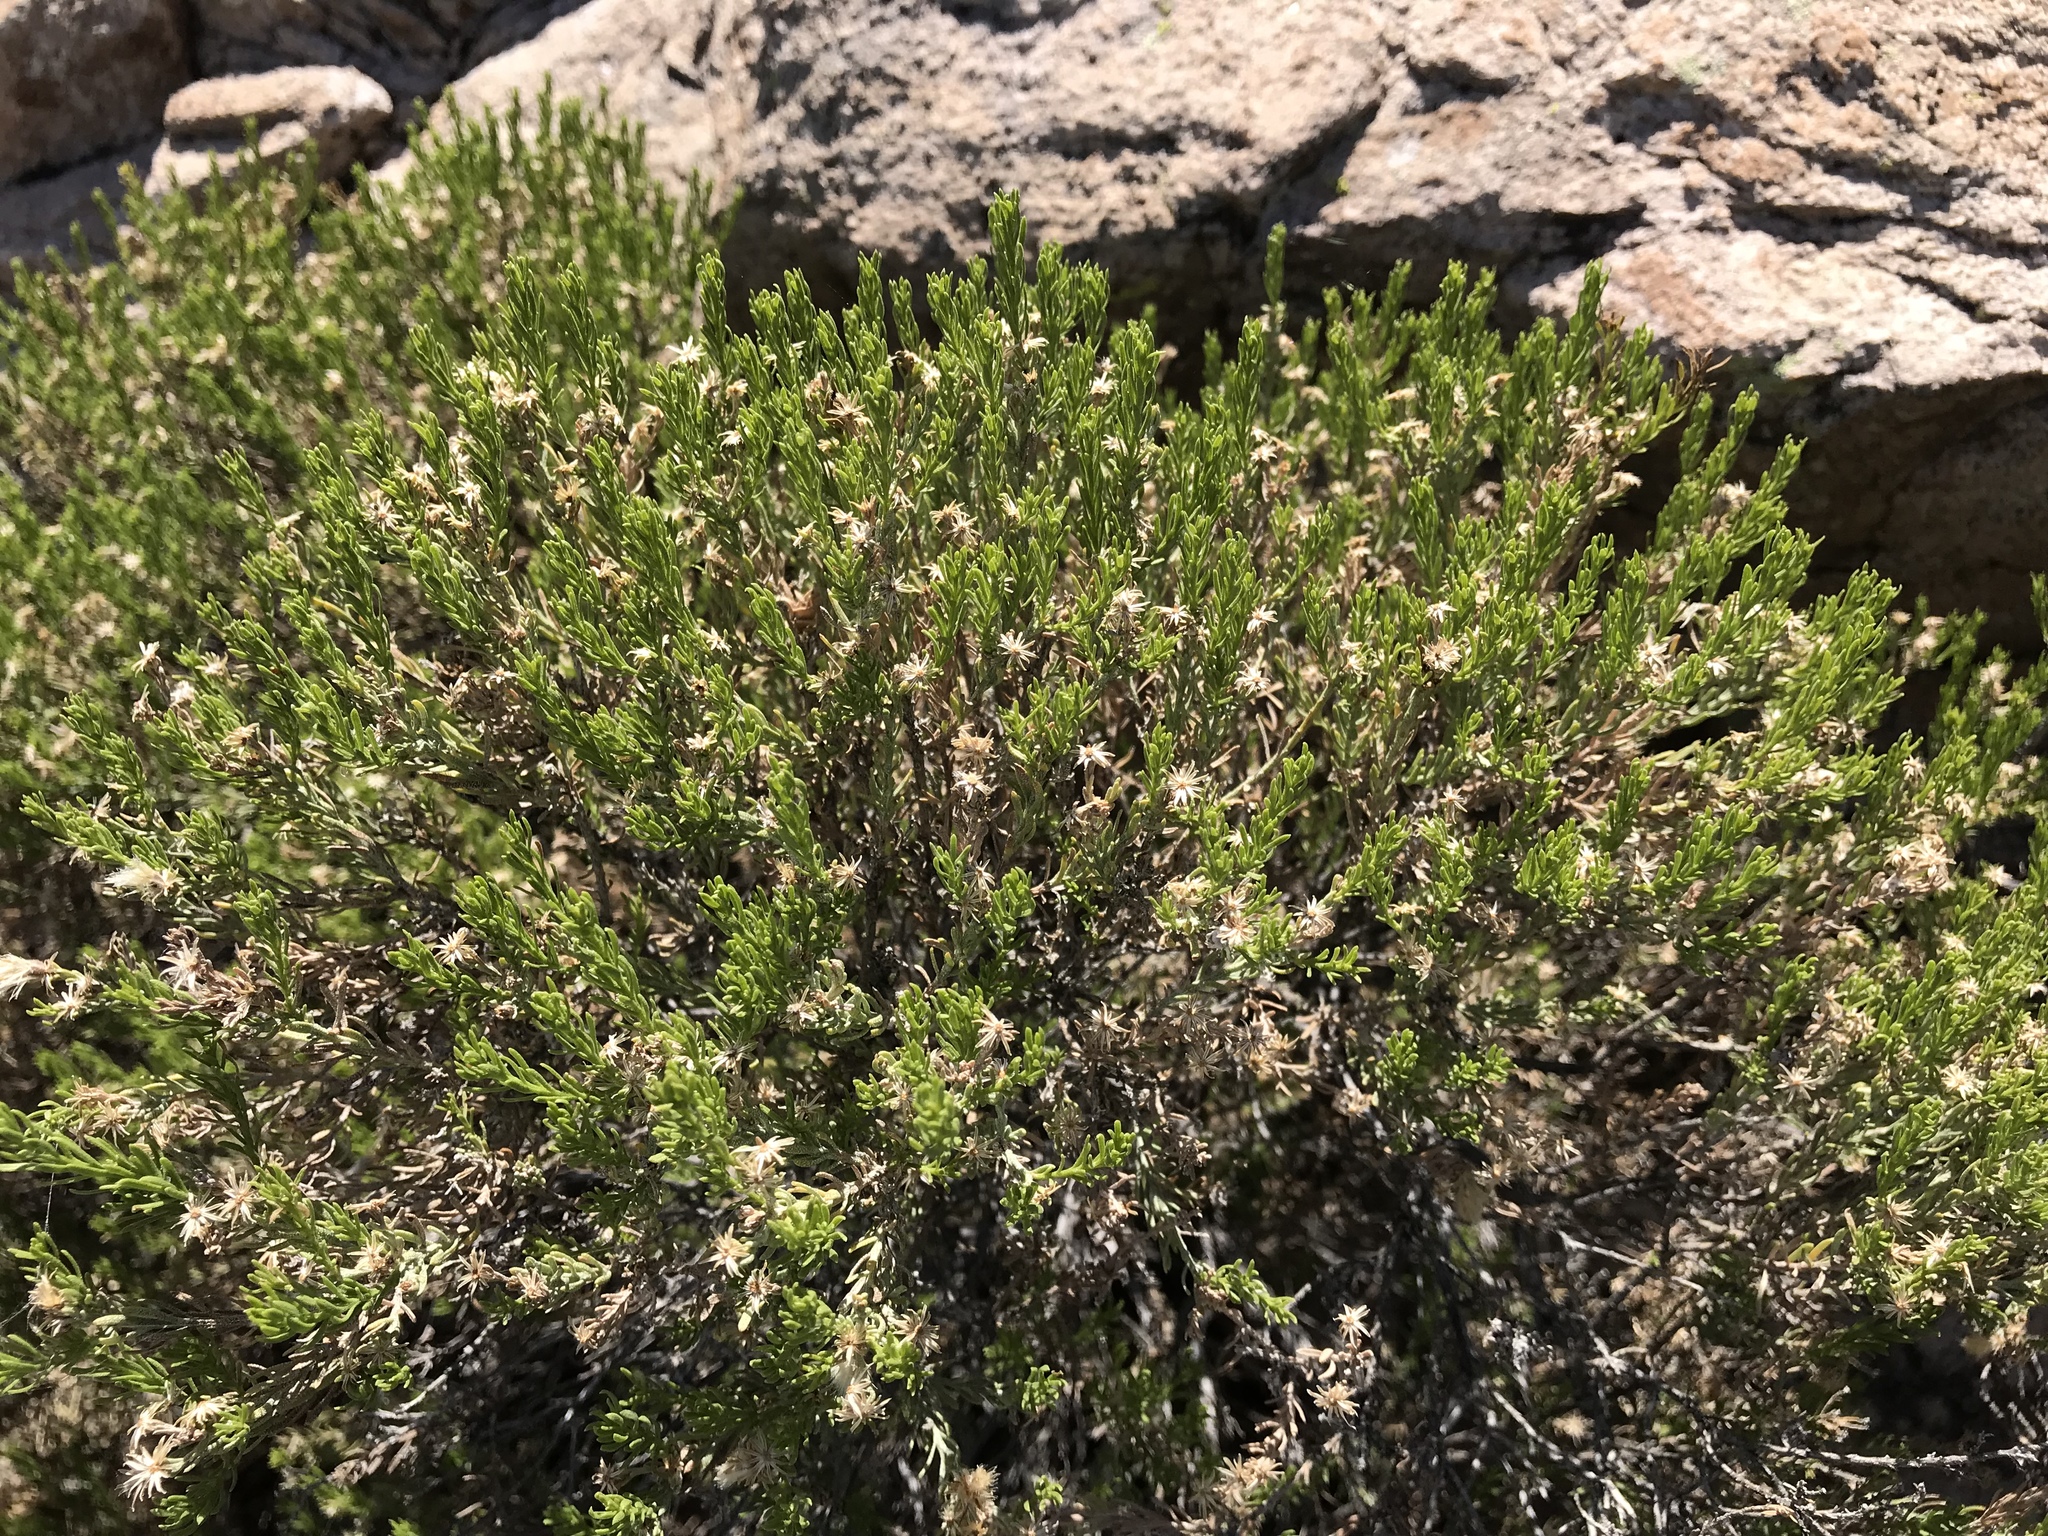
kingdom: Plantae
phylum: Tracheophyta
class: Magnoliopsida
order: Asterales
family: Asteraceae
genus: Ericameria
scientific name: Ericameria laricifolia
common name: Turpentine-bush
